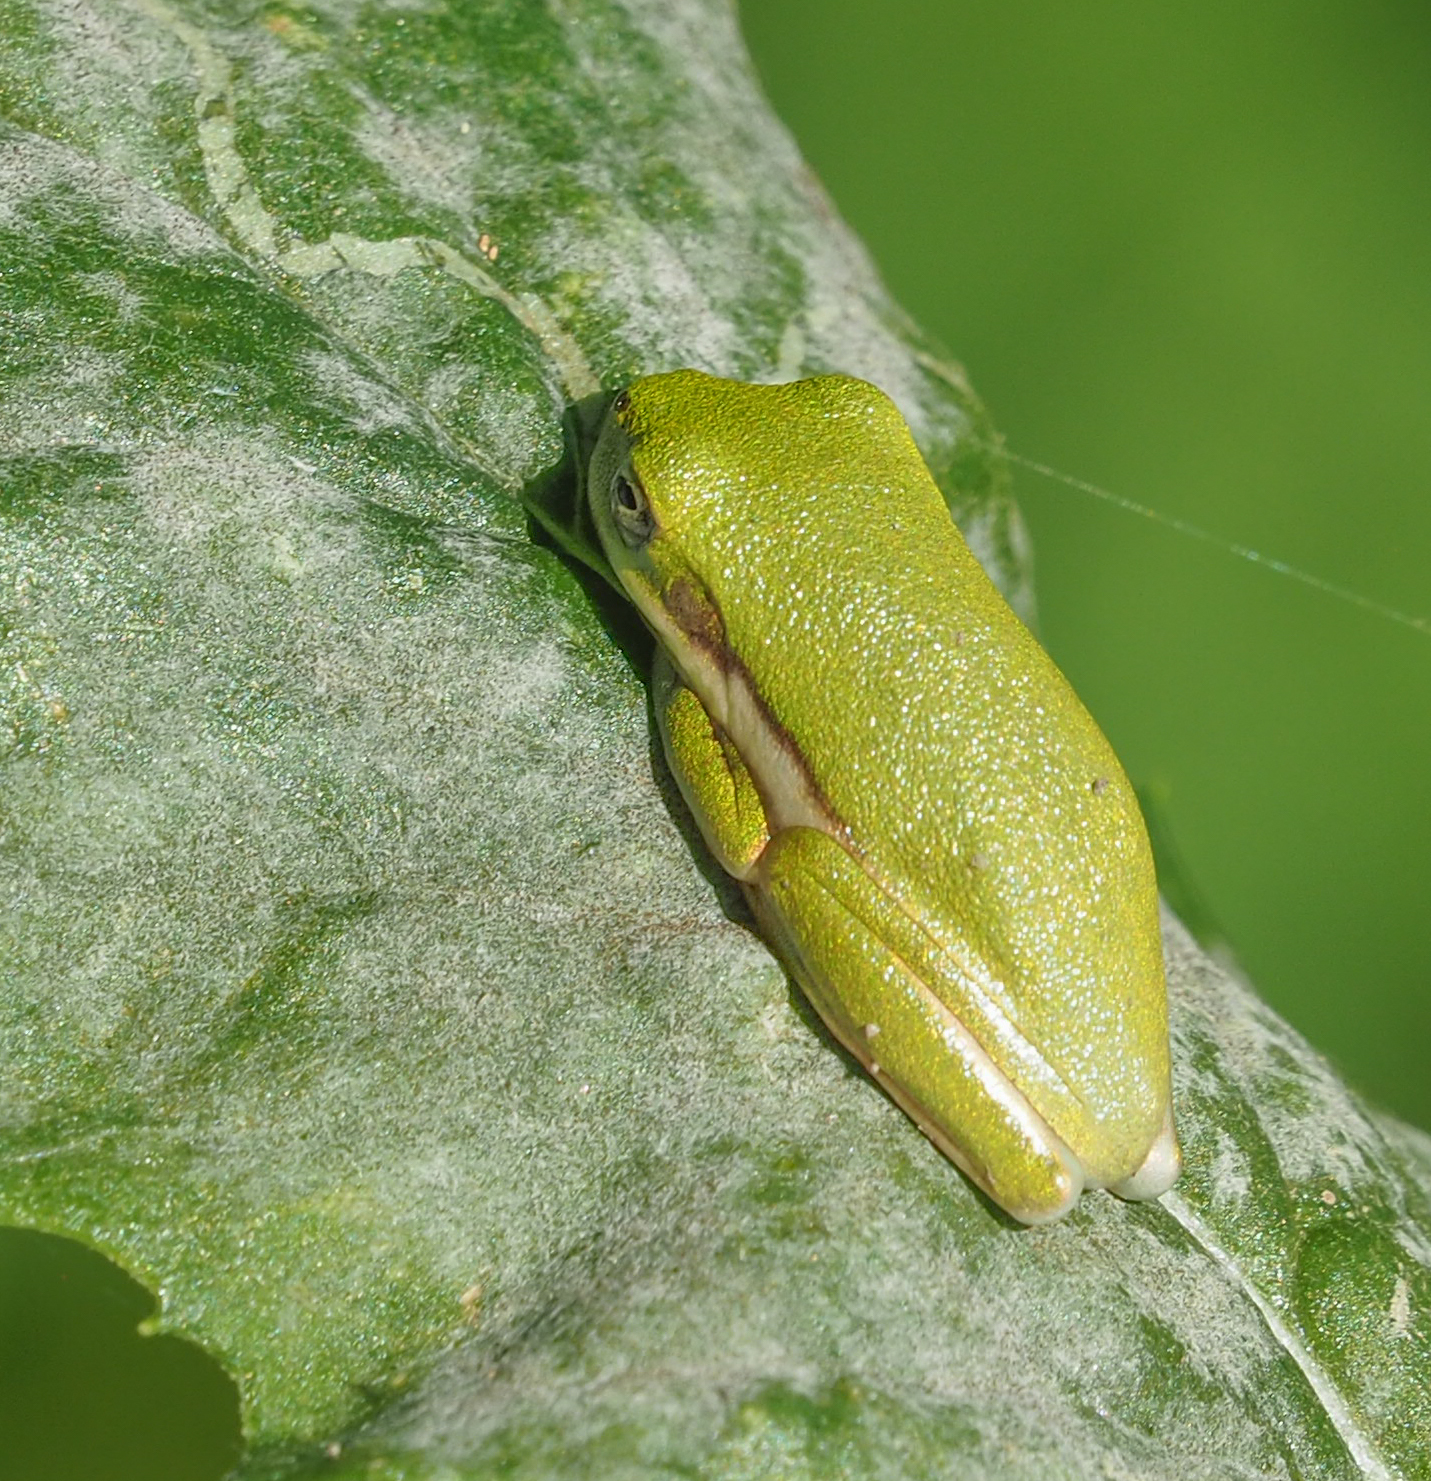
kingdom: Animalia
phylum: Chordata
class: Amphibia
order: Anura
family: Hylidae
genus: Dryophytes
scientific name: Dryophytes cinereus
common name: Green treefrog
